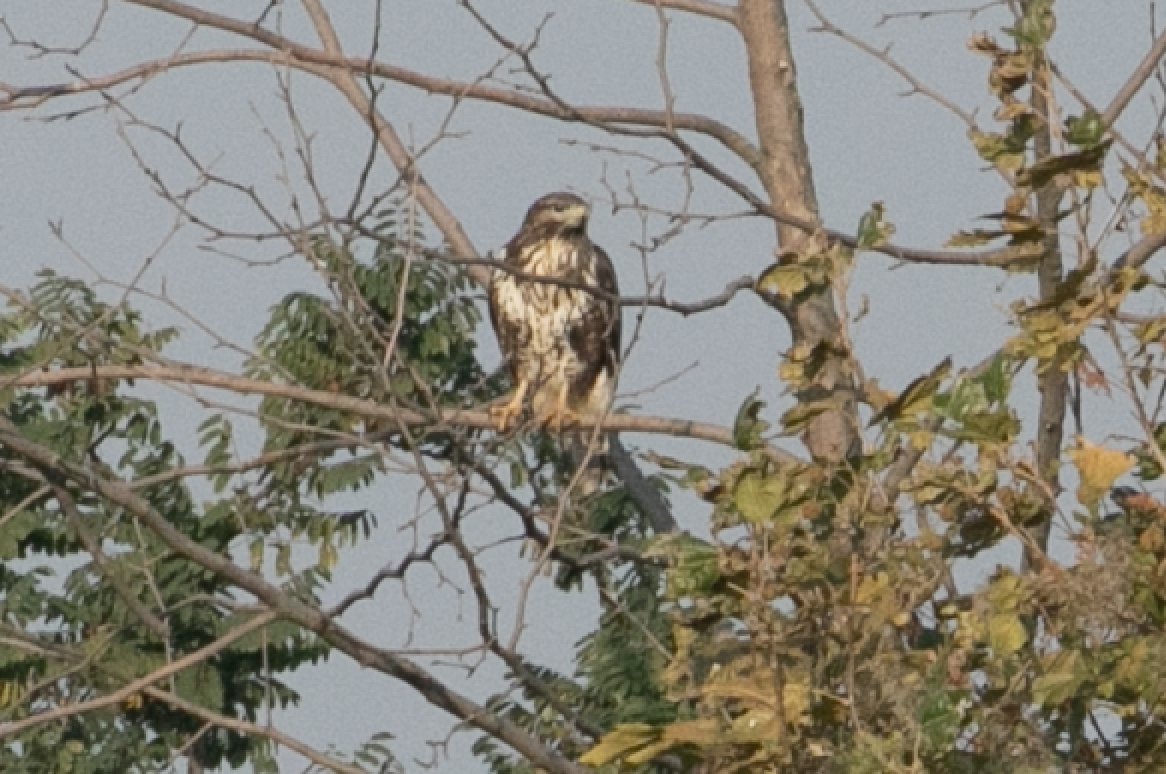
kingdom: Animalia
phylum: Chordata
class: Aves
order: Accipitriformes
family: Accipitridae
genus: Buteo
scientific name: Buteo buteo
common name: Common buzzard
